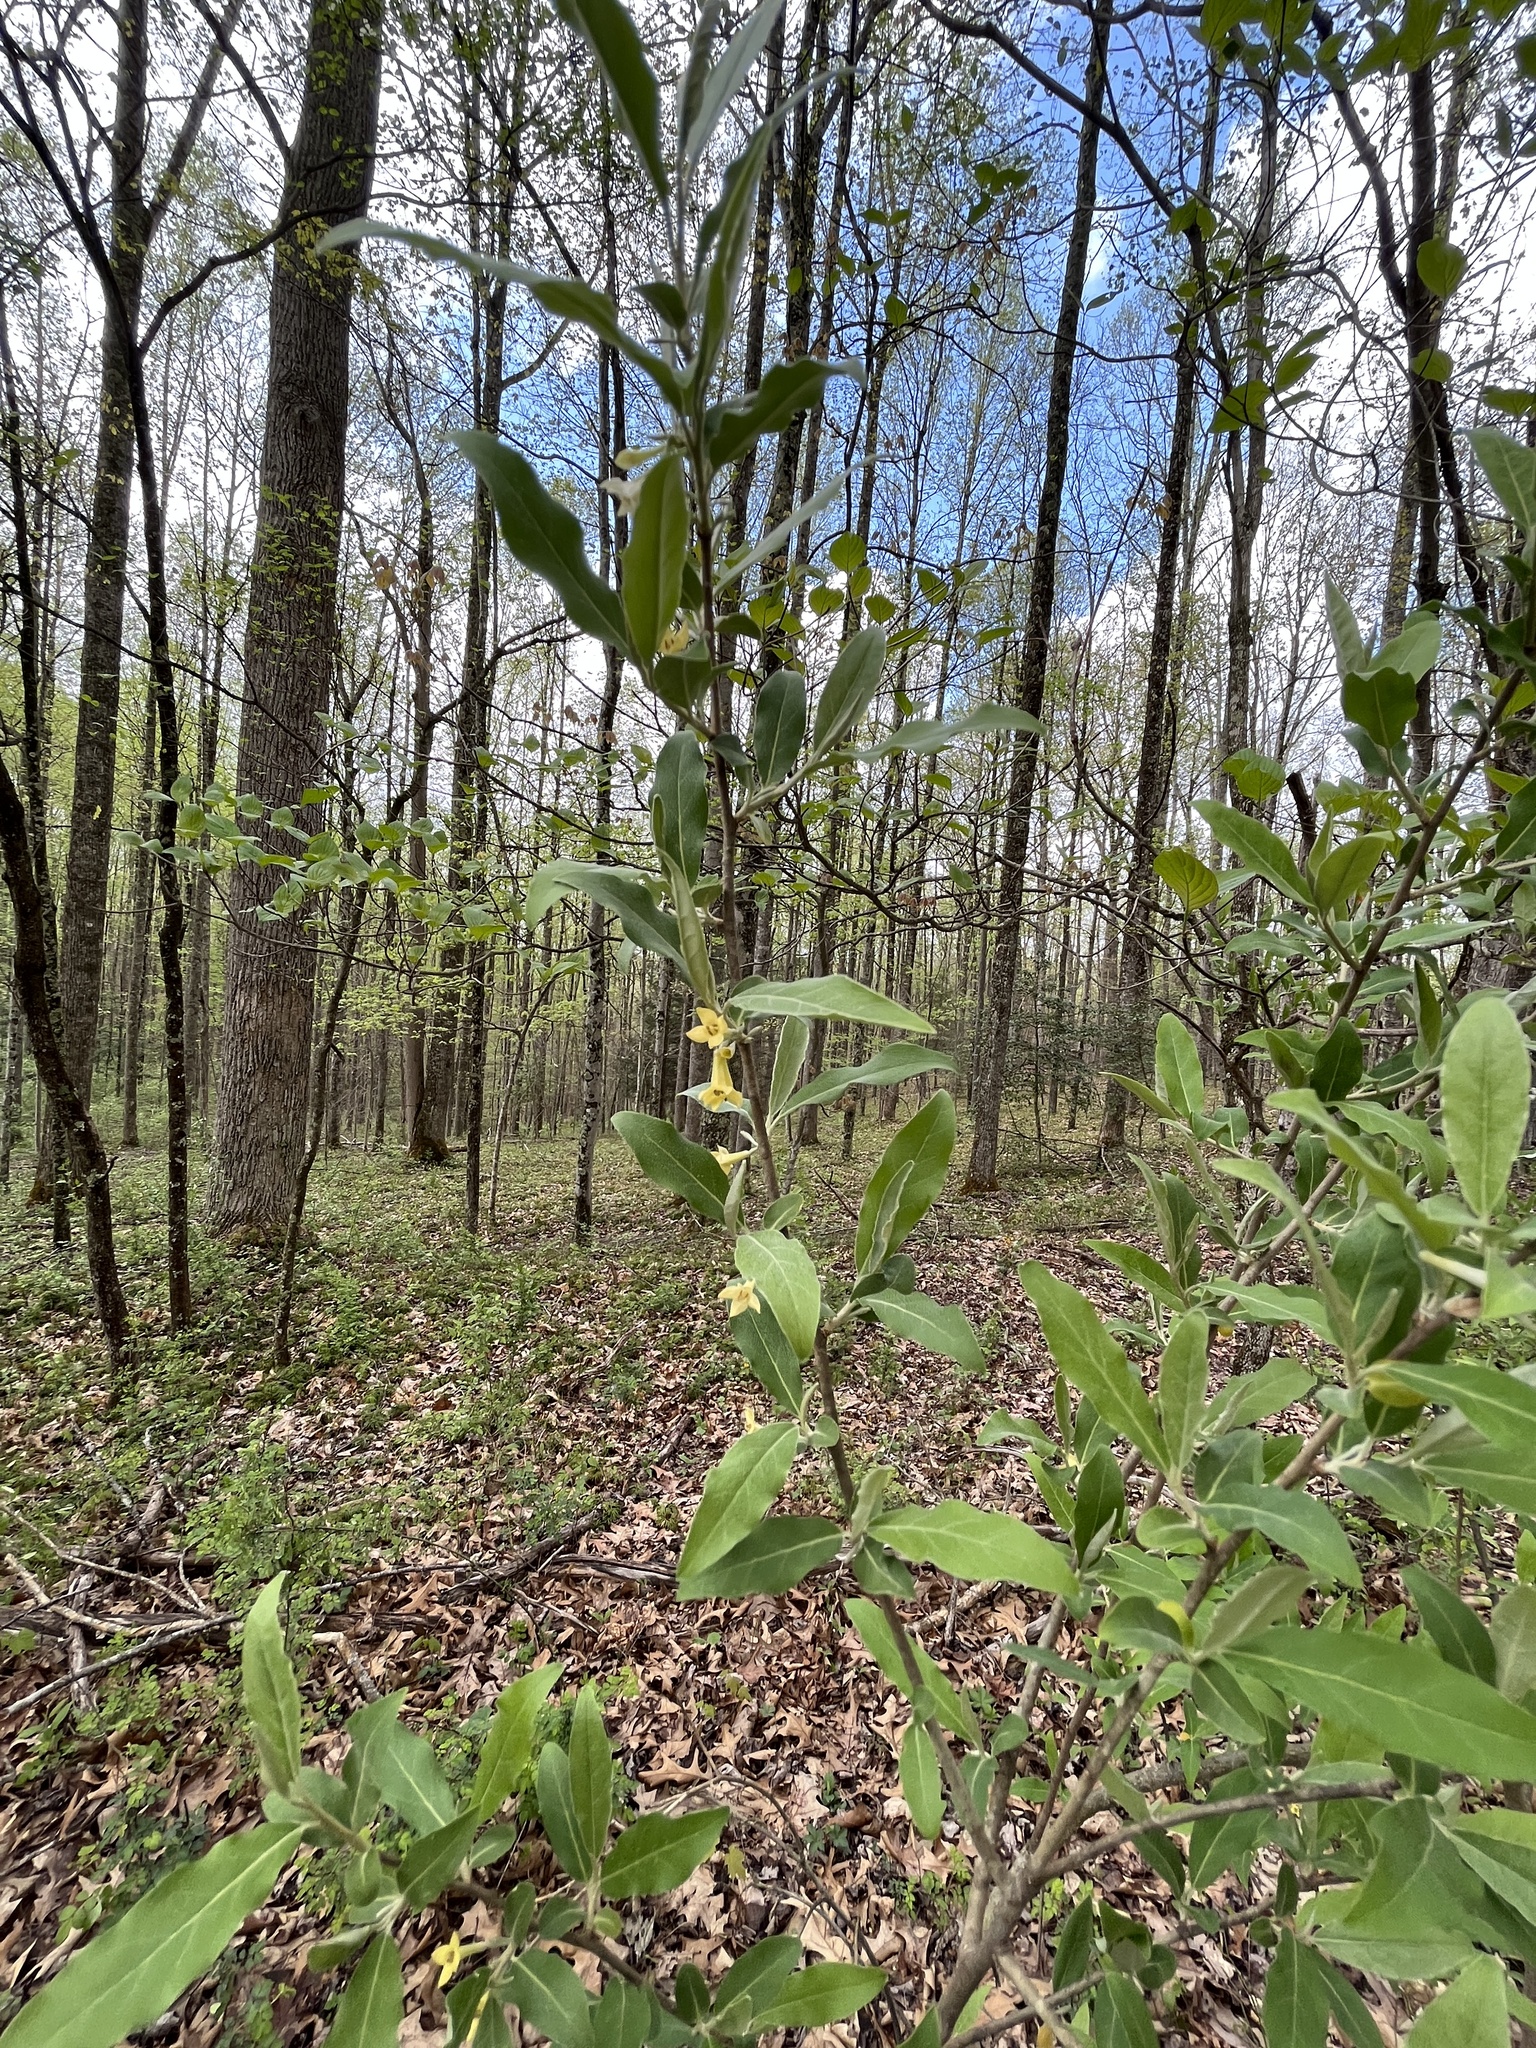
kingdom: Plantae
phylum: Tracheophyta
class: Magnoliopsida
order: Rosales
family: Elaeagnaceae
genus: Elaeagnus
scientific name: Elaeagnus umbellata
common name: Autumn olive
